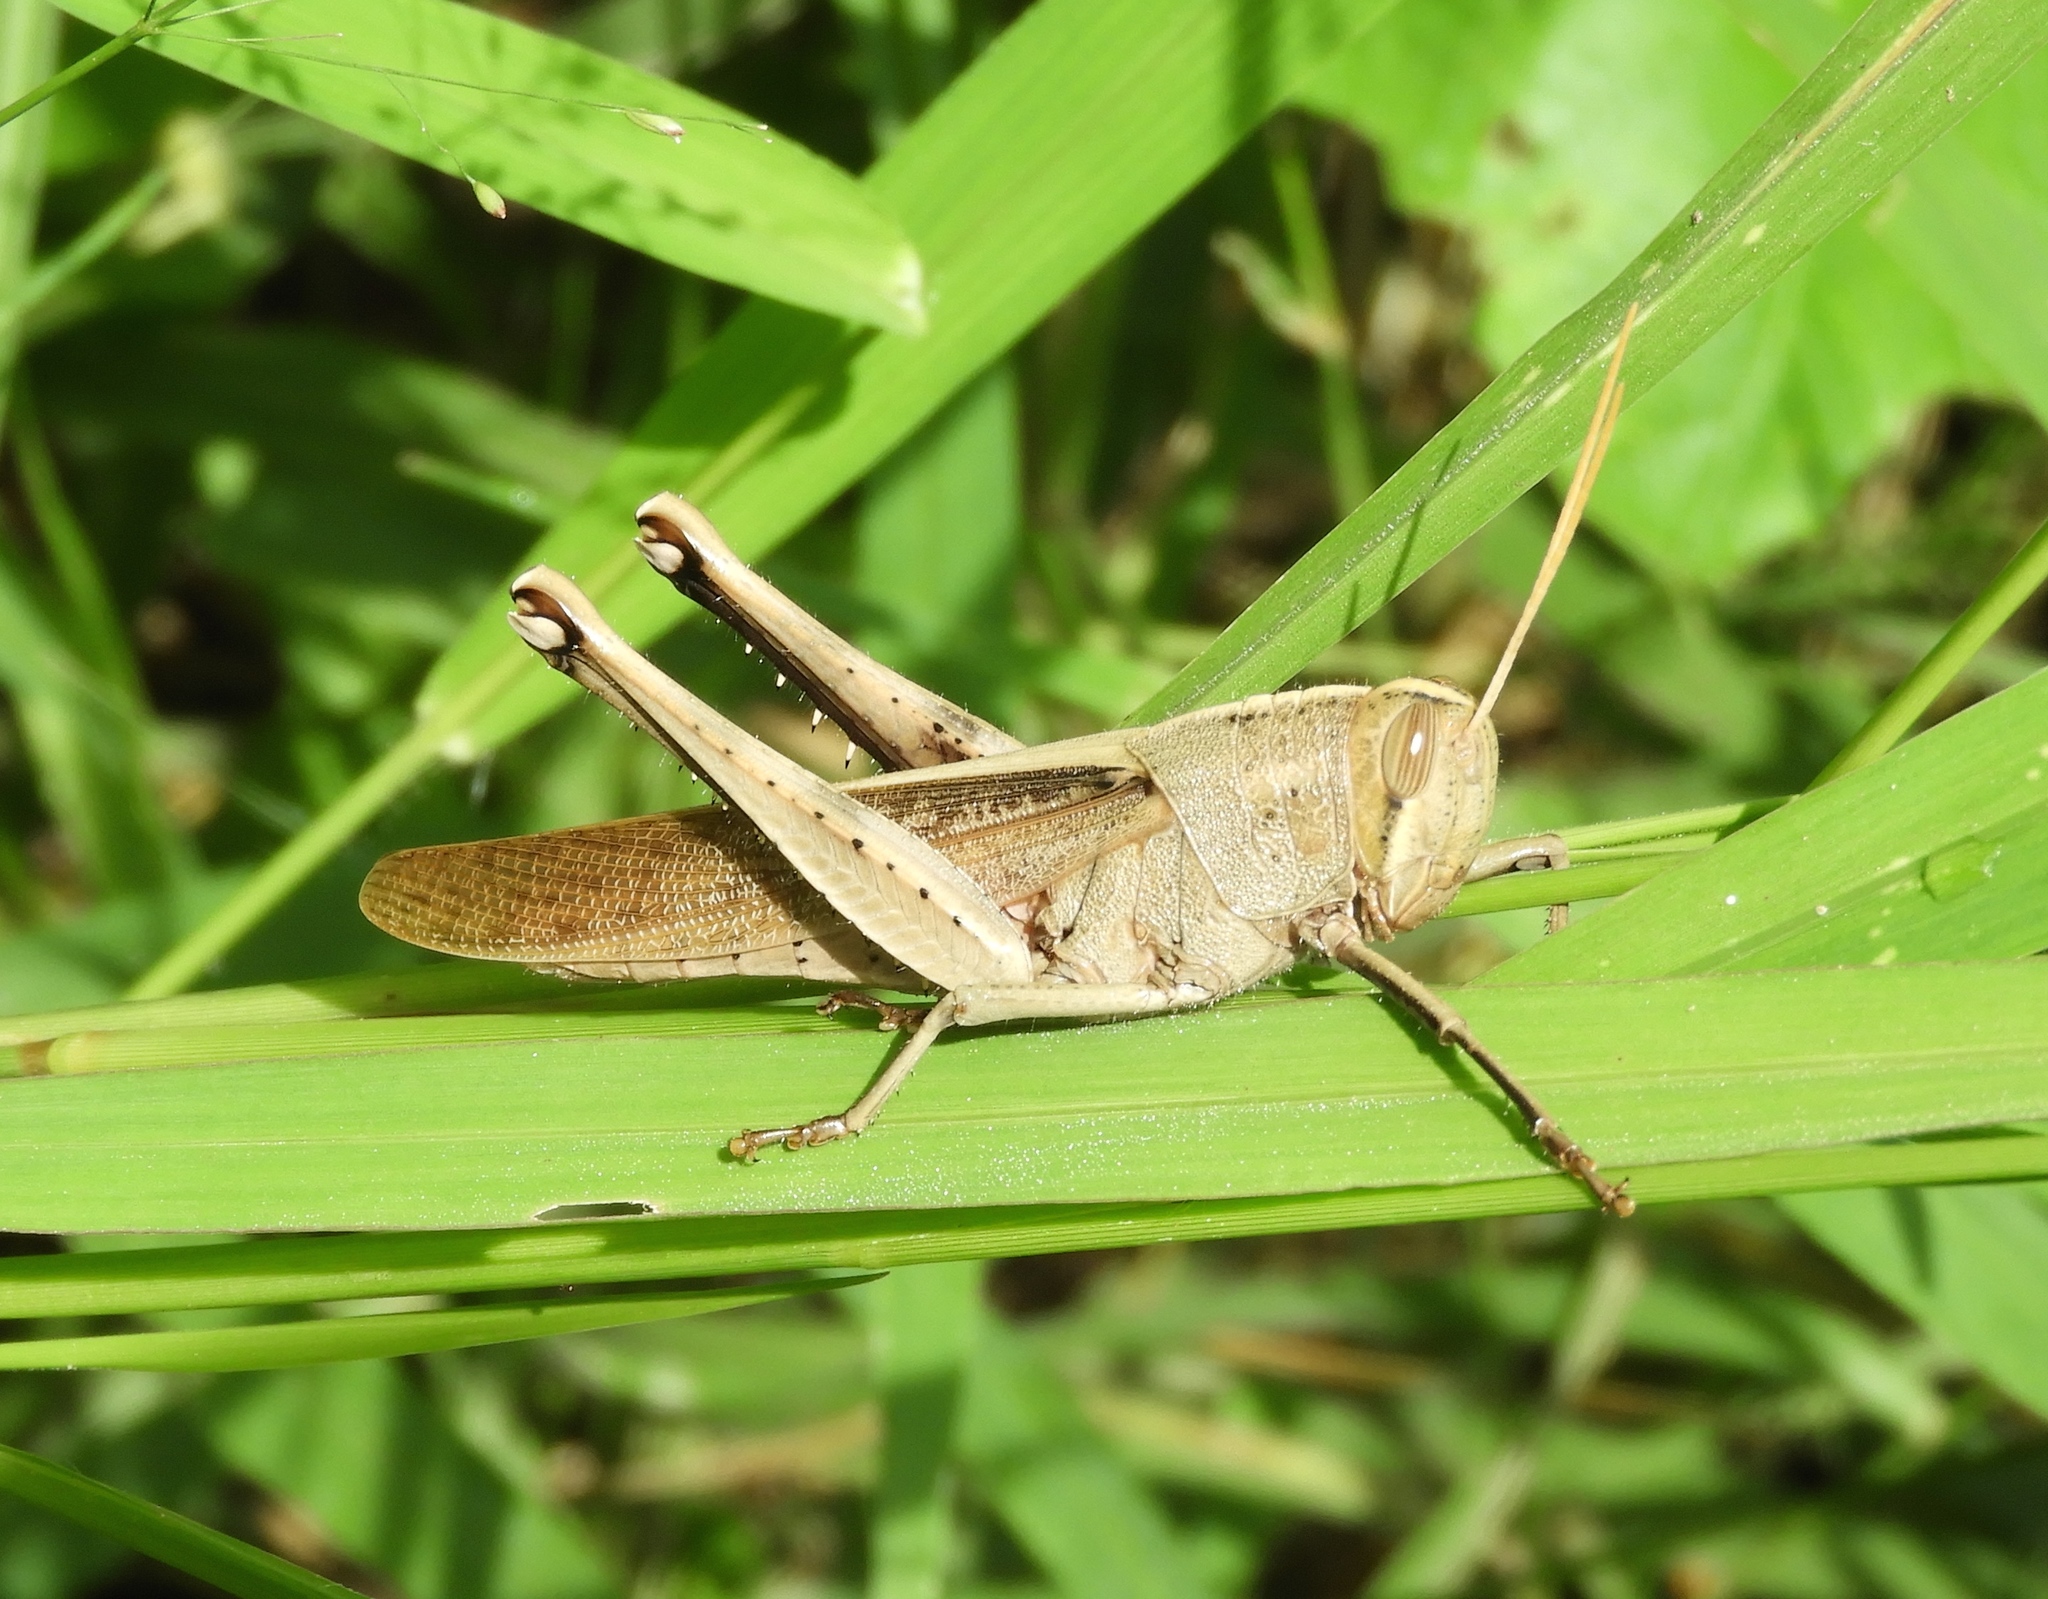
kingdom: Animalia
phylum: Arthropoda
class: Insecta
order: Orthoptera
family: Acrididae
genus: Schistocerca
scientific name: Schistocerca camerata
